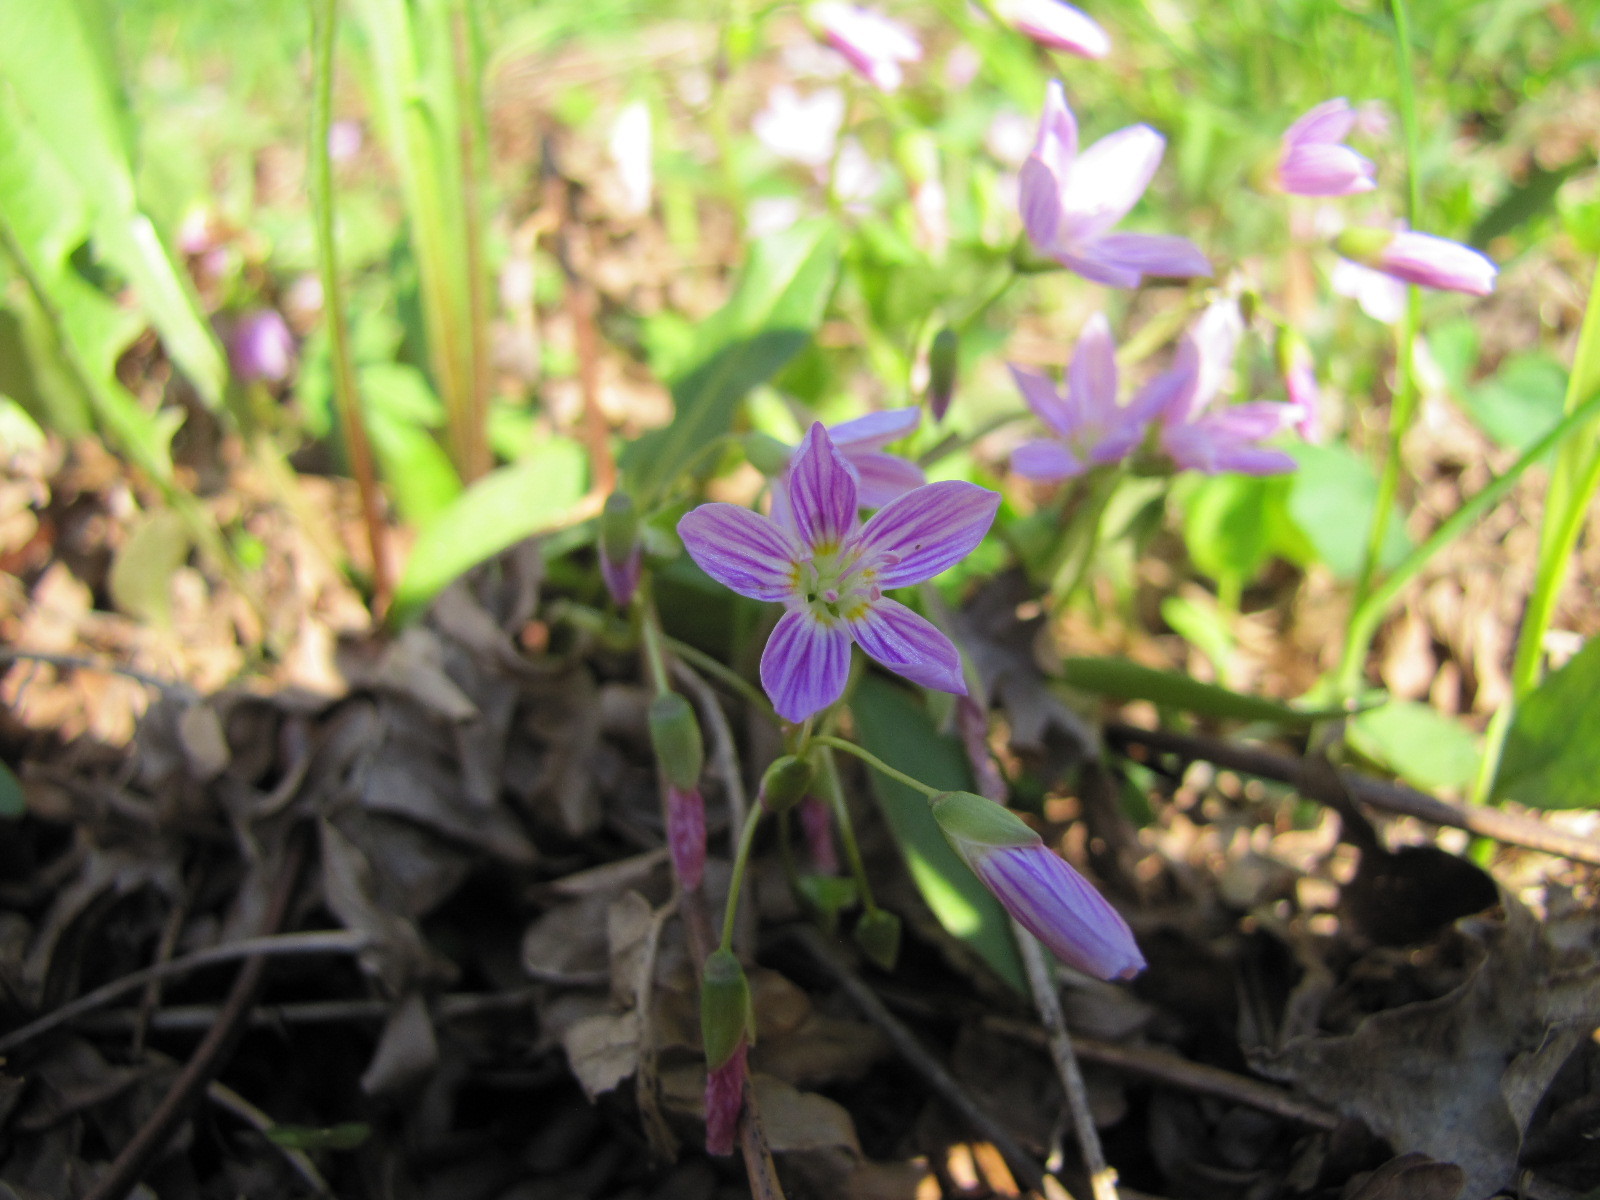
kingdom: Plantae
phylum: Tracheophyta
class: Magnoliopsida
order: Caryophyllales
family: Montiaceae
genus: Claytonia
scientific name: Claytonia caroliniana
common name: Carolina spring beauty
